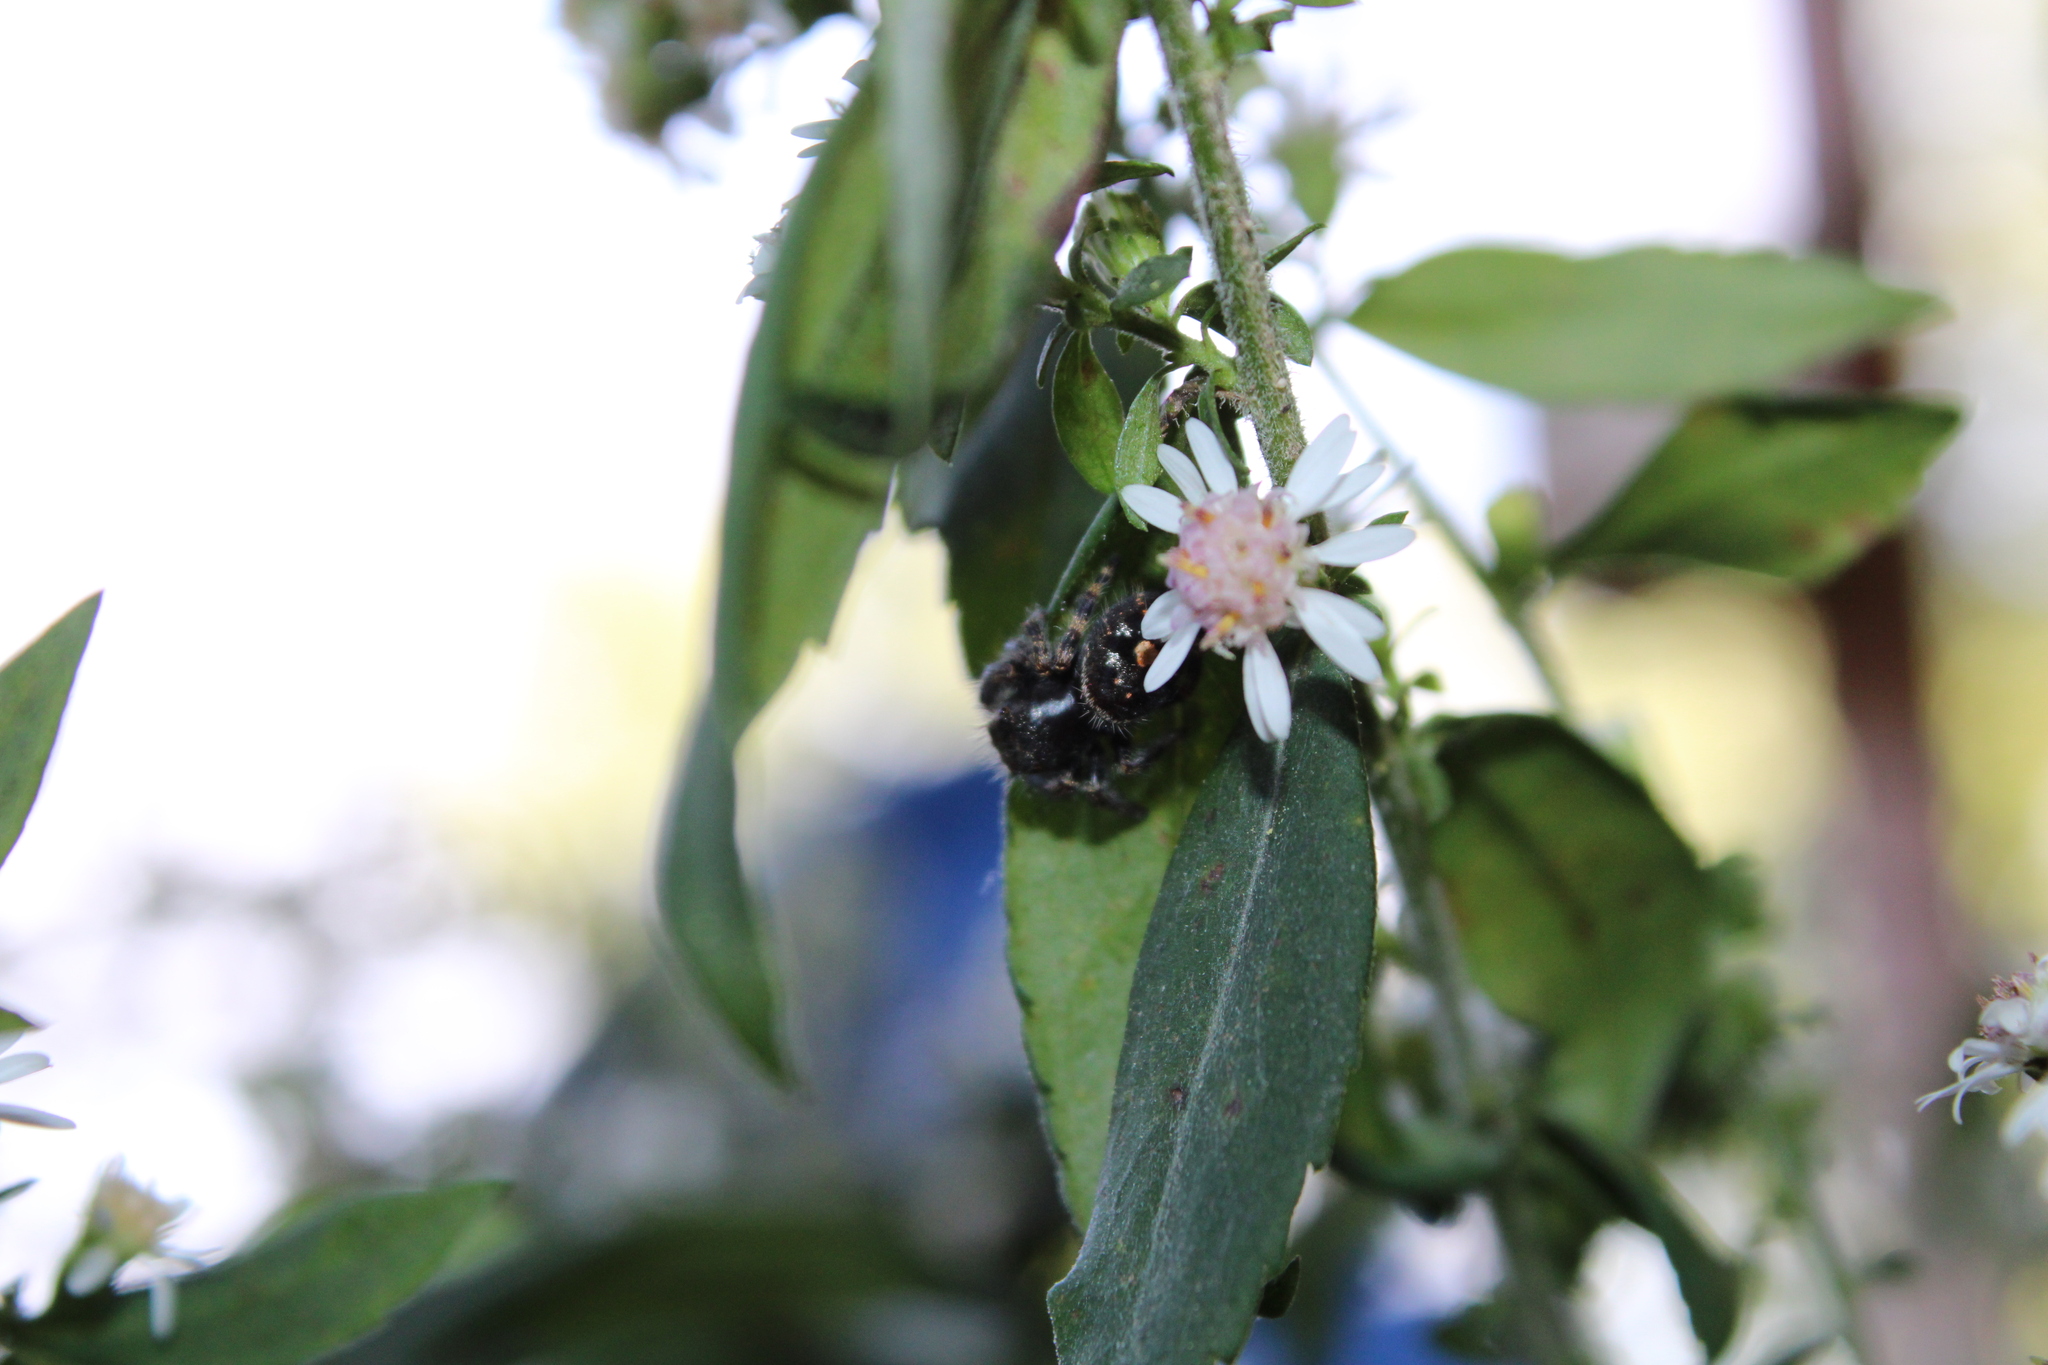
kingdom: Animalia
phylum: Arthropoda
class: Arachnida
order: Araneae
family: Salticidae
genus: Phidippus
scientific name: Phidippus audax
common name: Bold jumper
